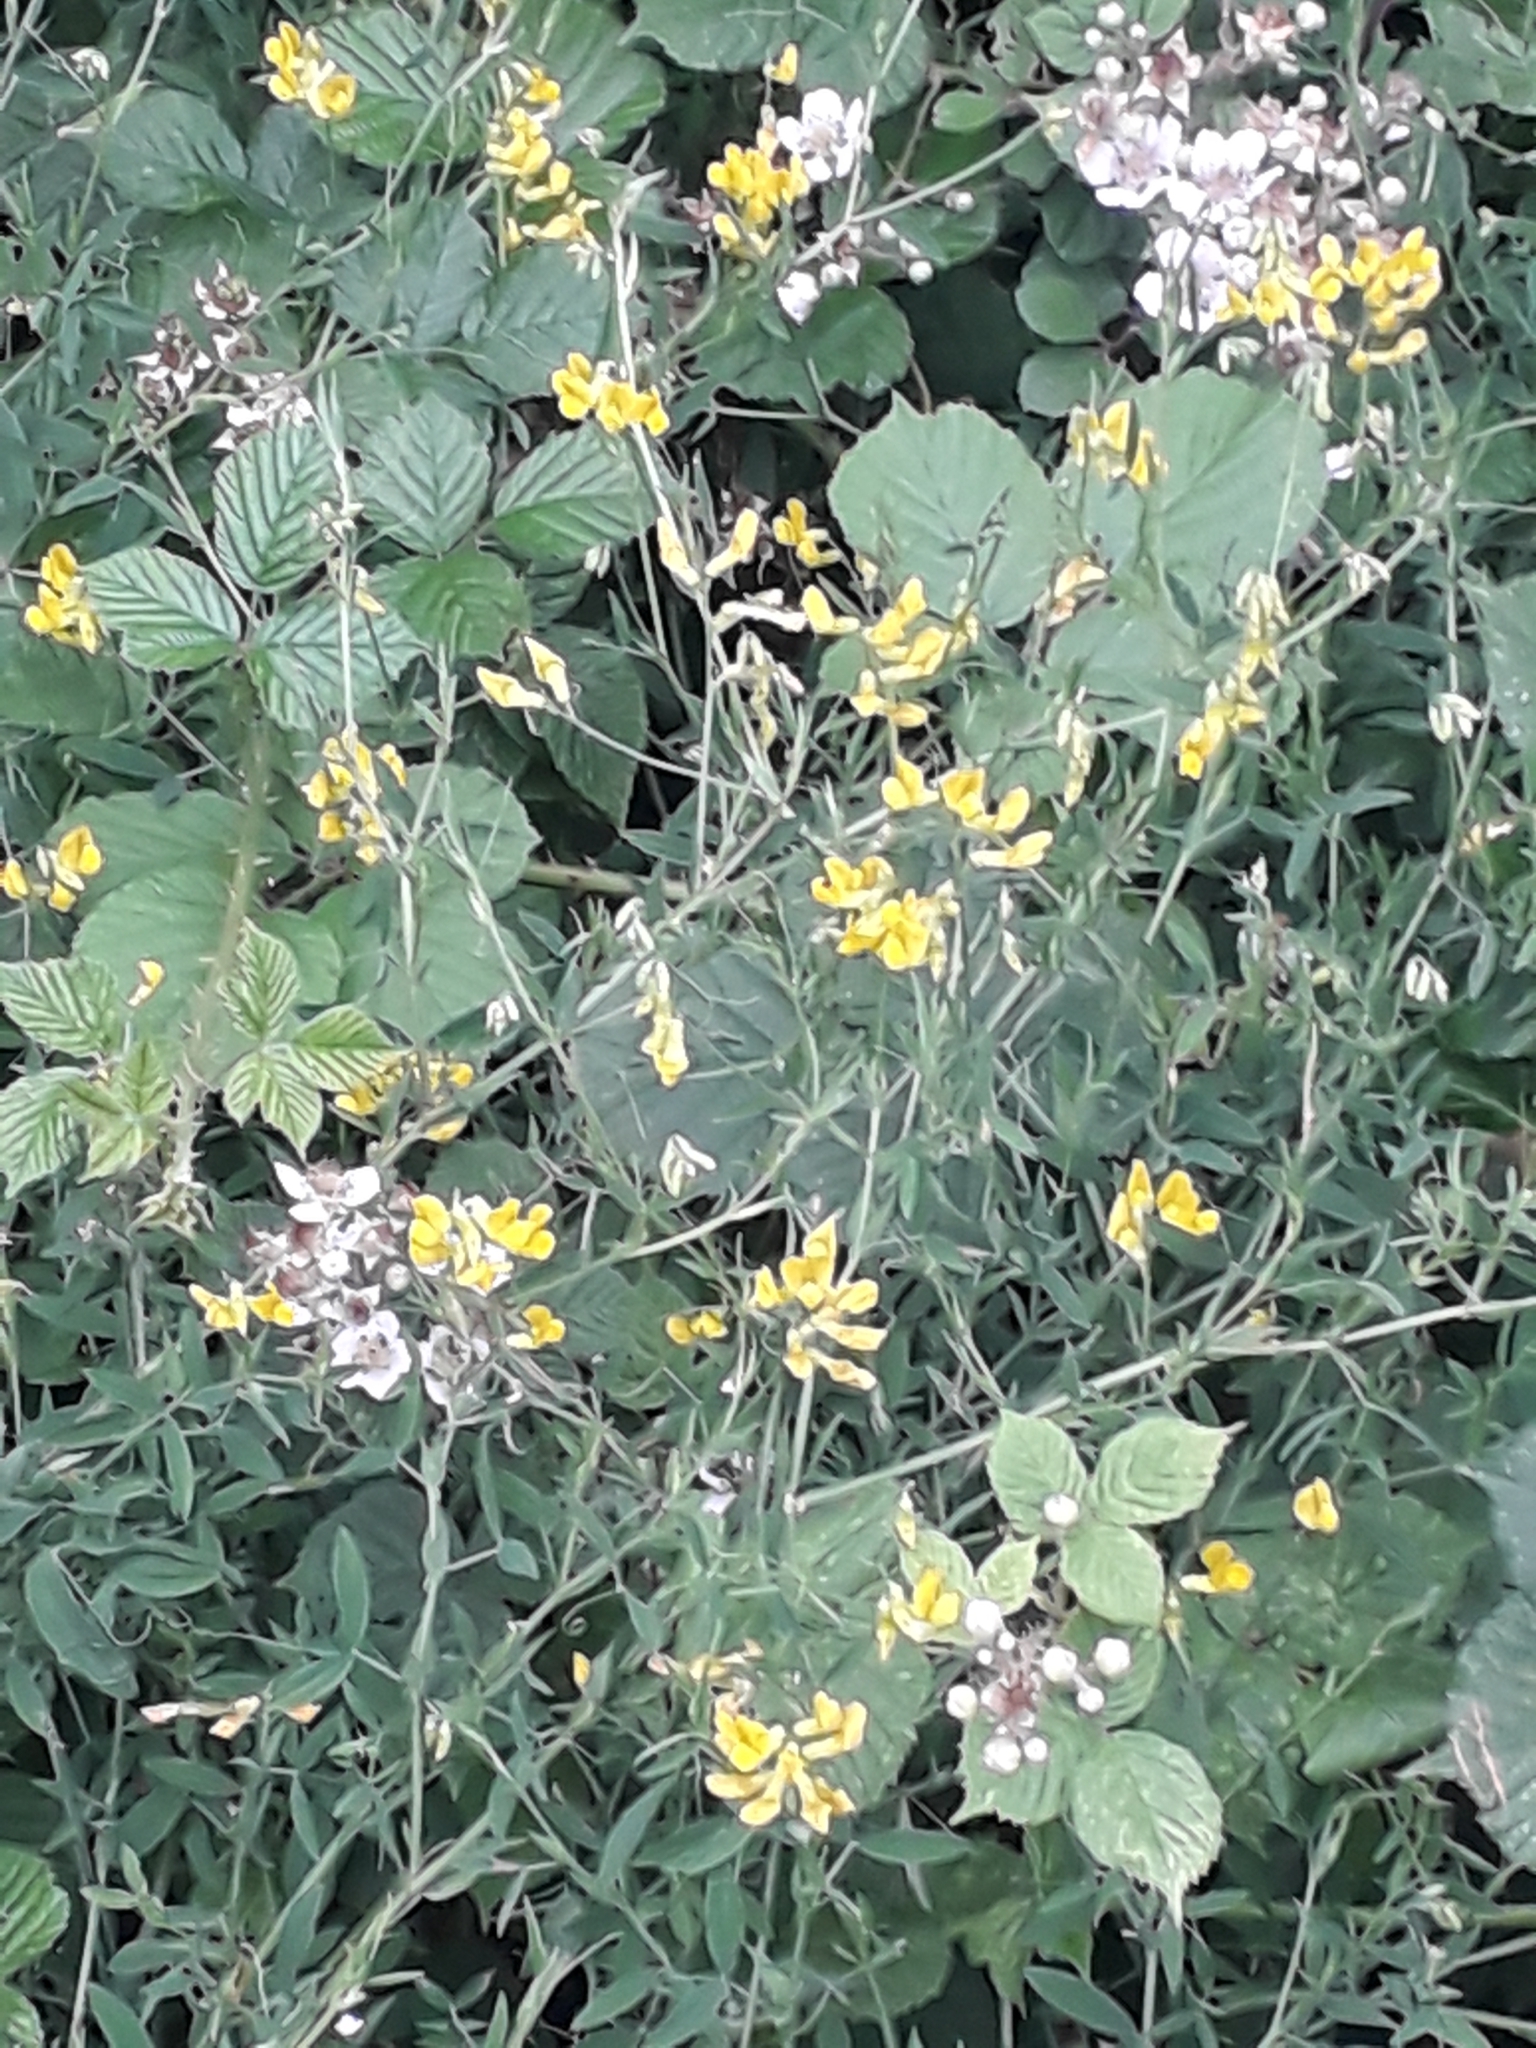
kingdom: Plantae
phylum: Tracheophyta
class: Magnoliopsida
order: Fabales
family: Fabaceae
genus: Lathyrus
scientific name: Lathyrus pratensis
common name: Meadow vetchling
